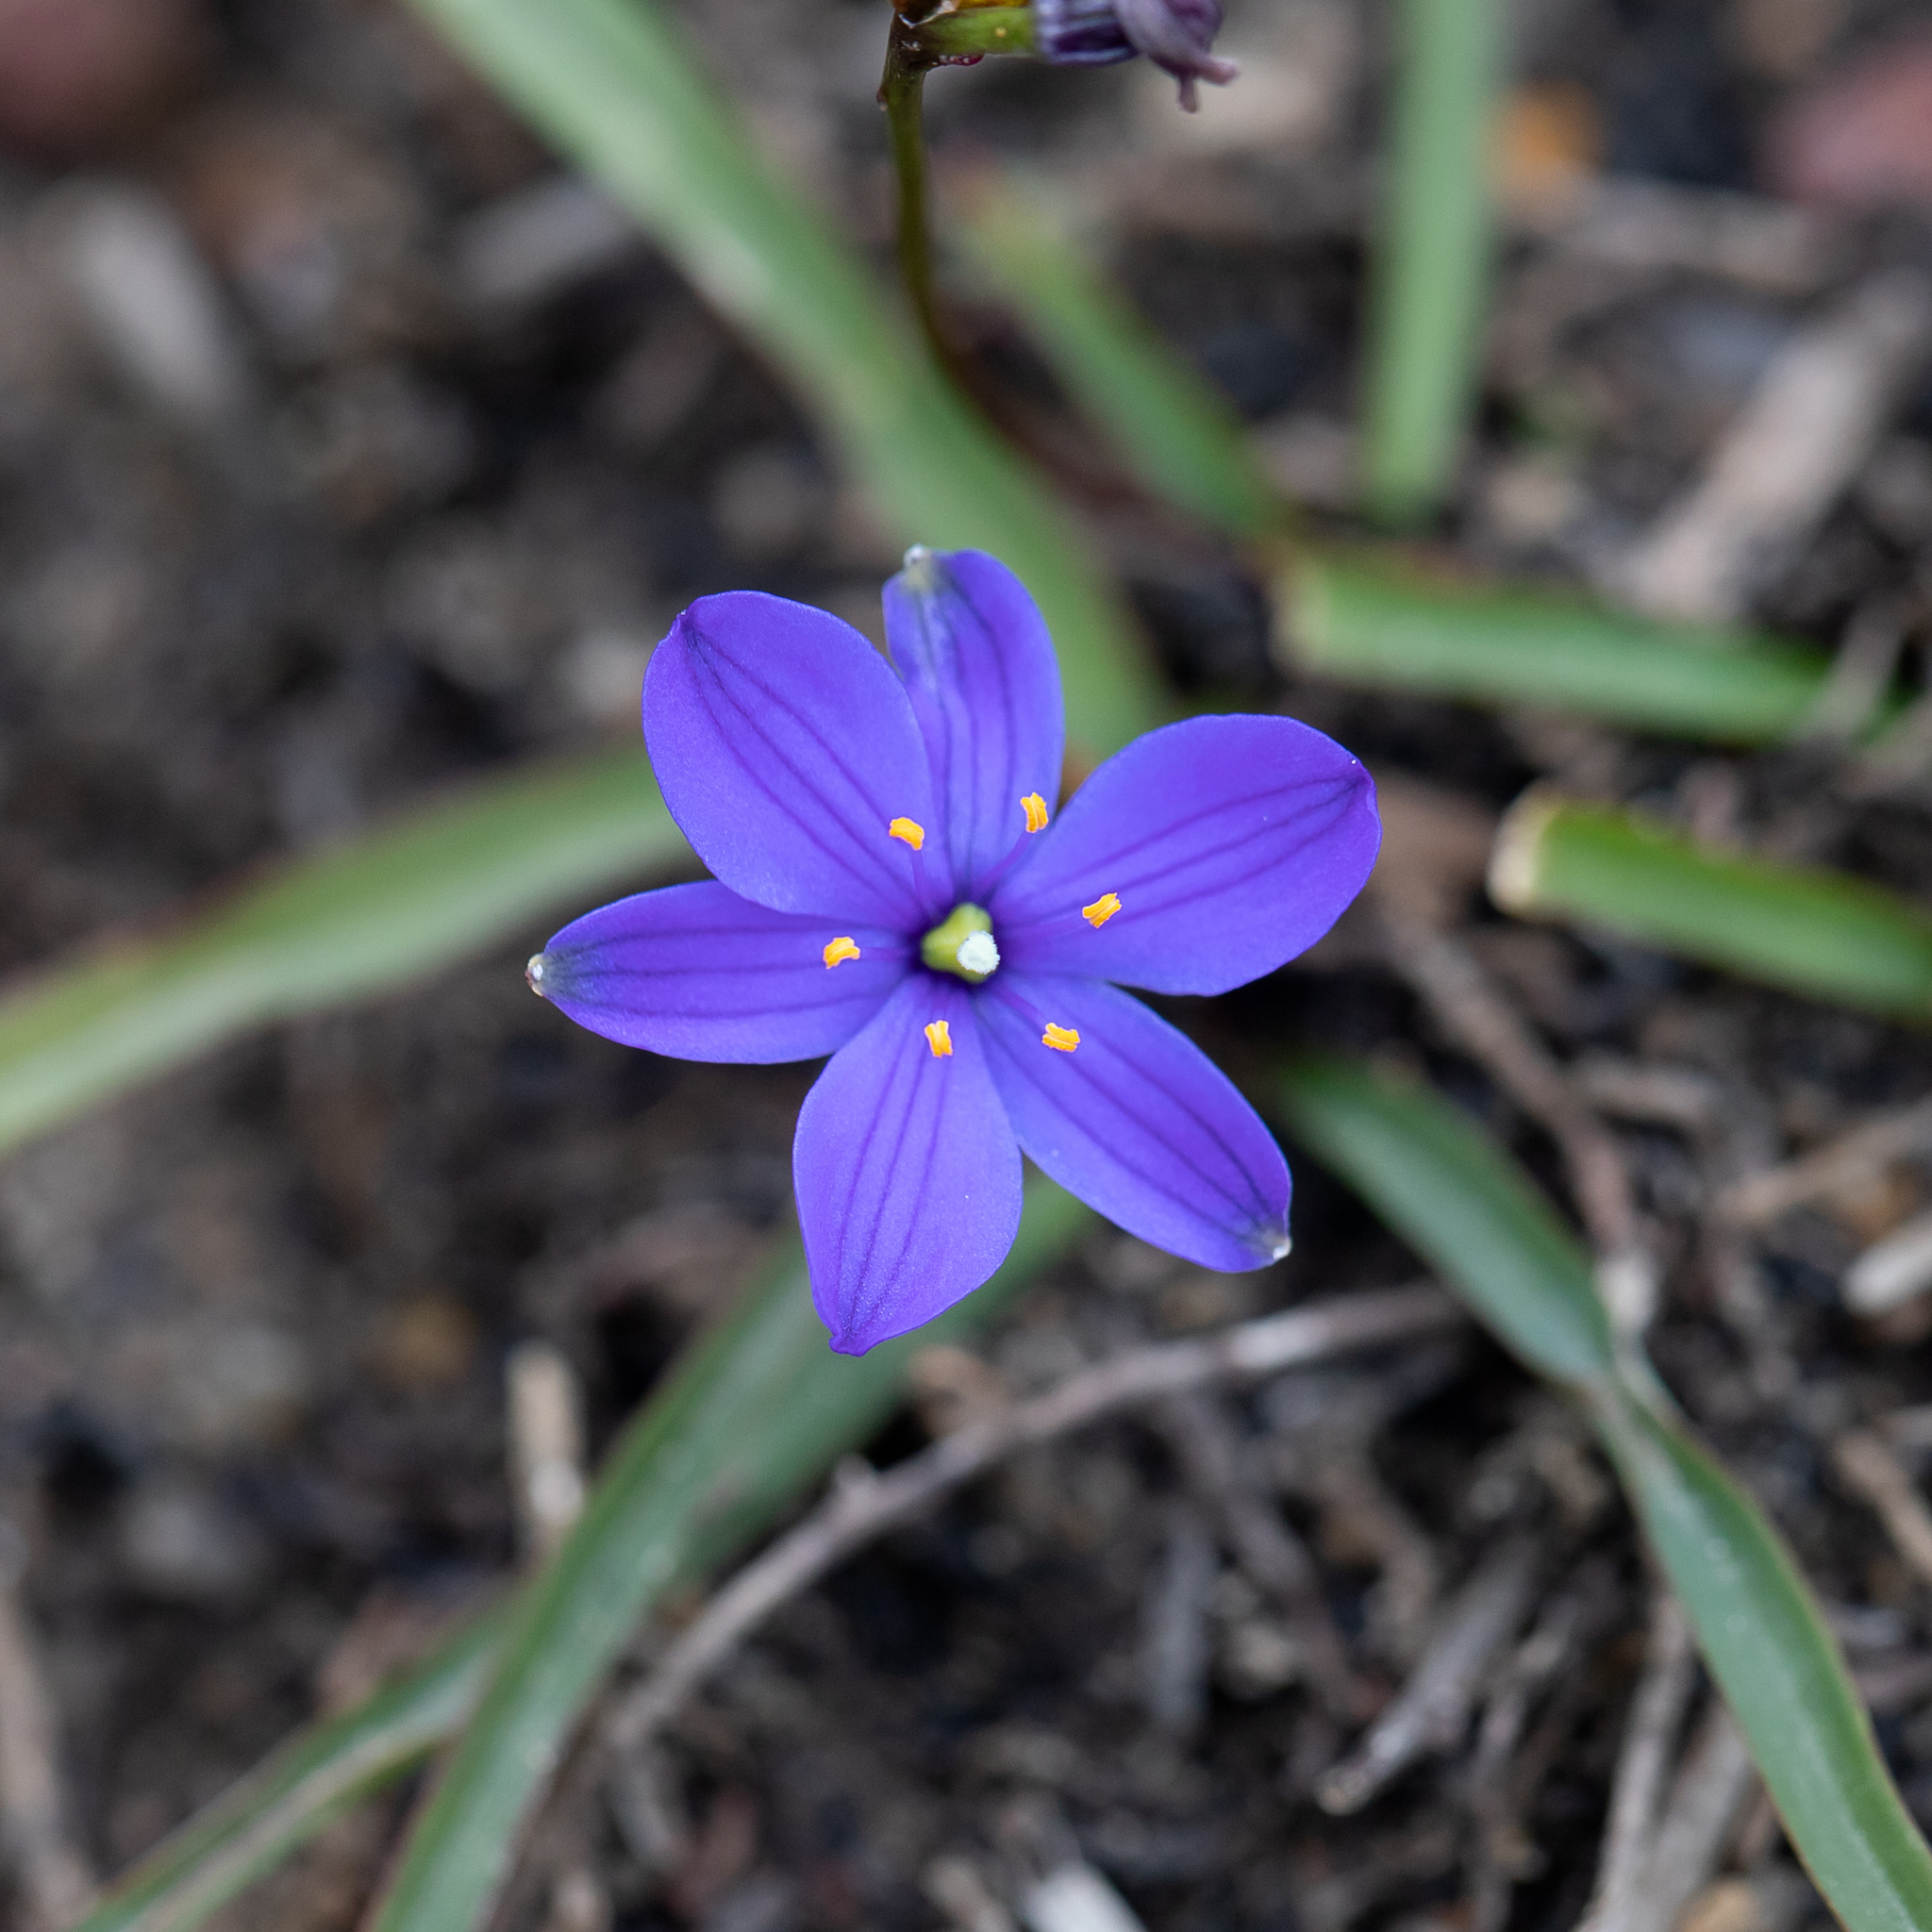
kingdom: Plantae
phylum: Tracheophyta
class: Liliopsida
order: Asparagales
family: Asphodelaceae
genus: Chamaescilla
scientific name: Chamaescilla corymbosa
